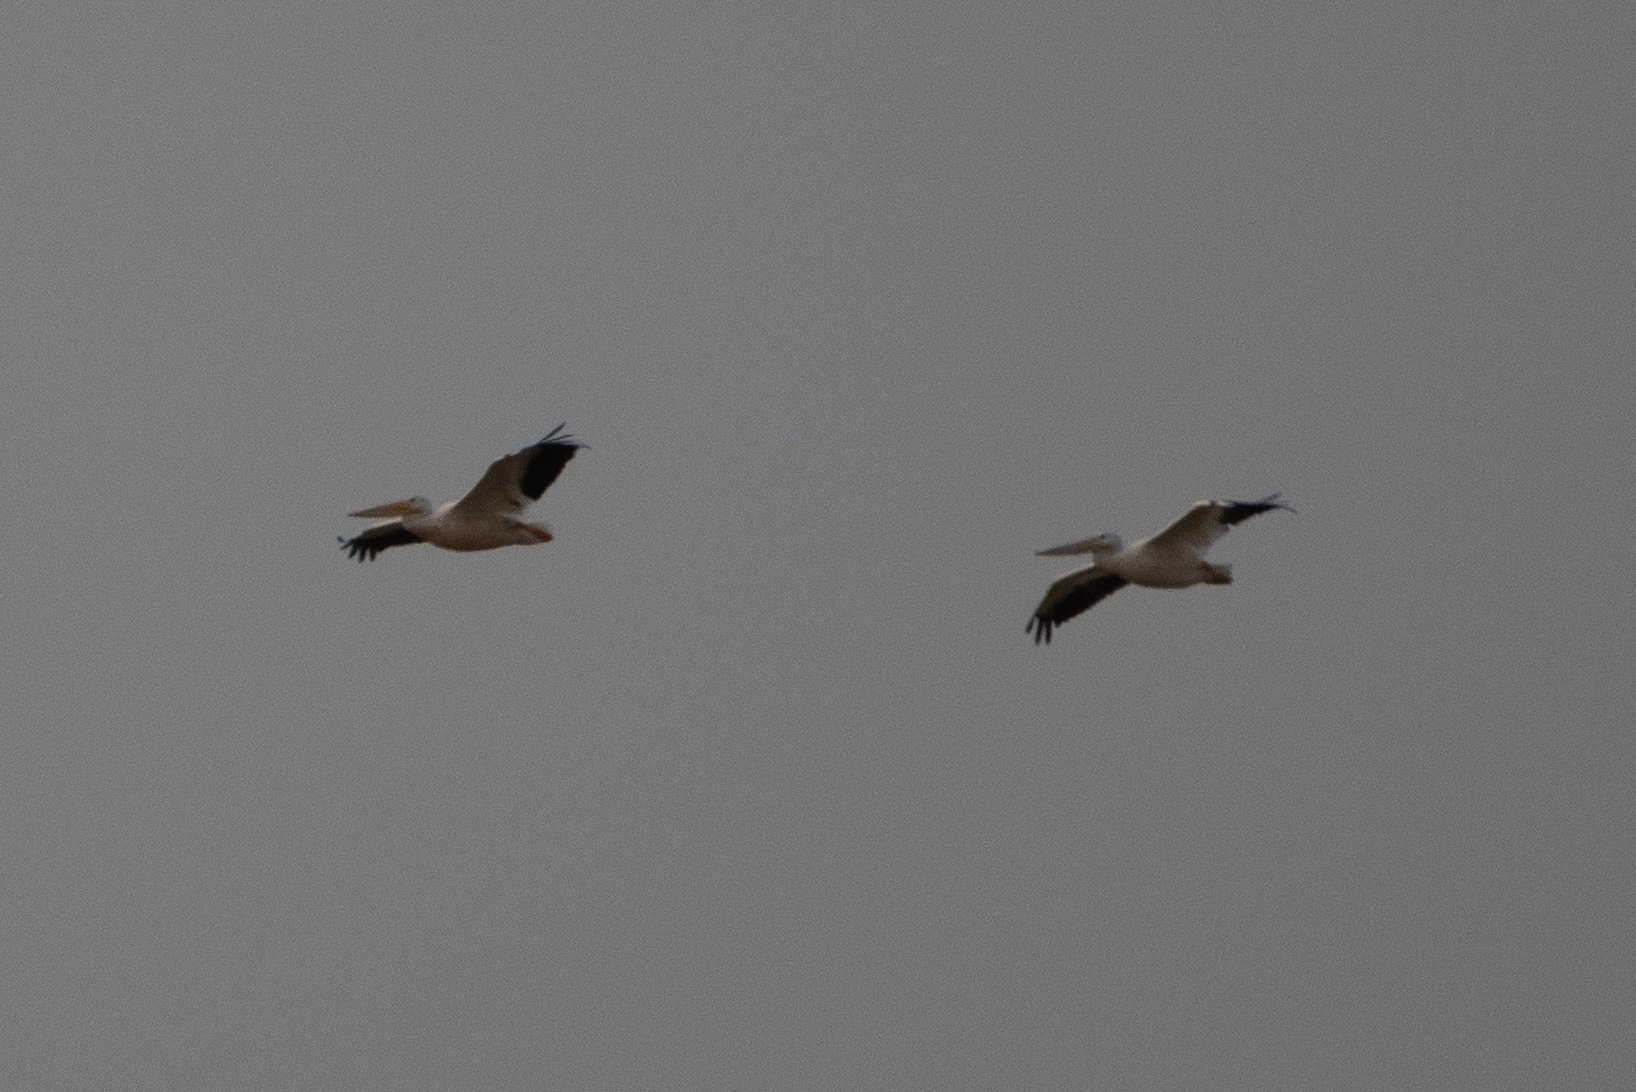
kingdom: Animalia
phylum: Chordata
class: Aves
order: Pelecaniformes
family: Pelecanidae
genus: Pelecanus
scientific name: Pelecanus erythrorhynchos
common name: American white pelican
